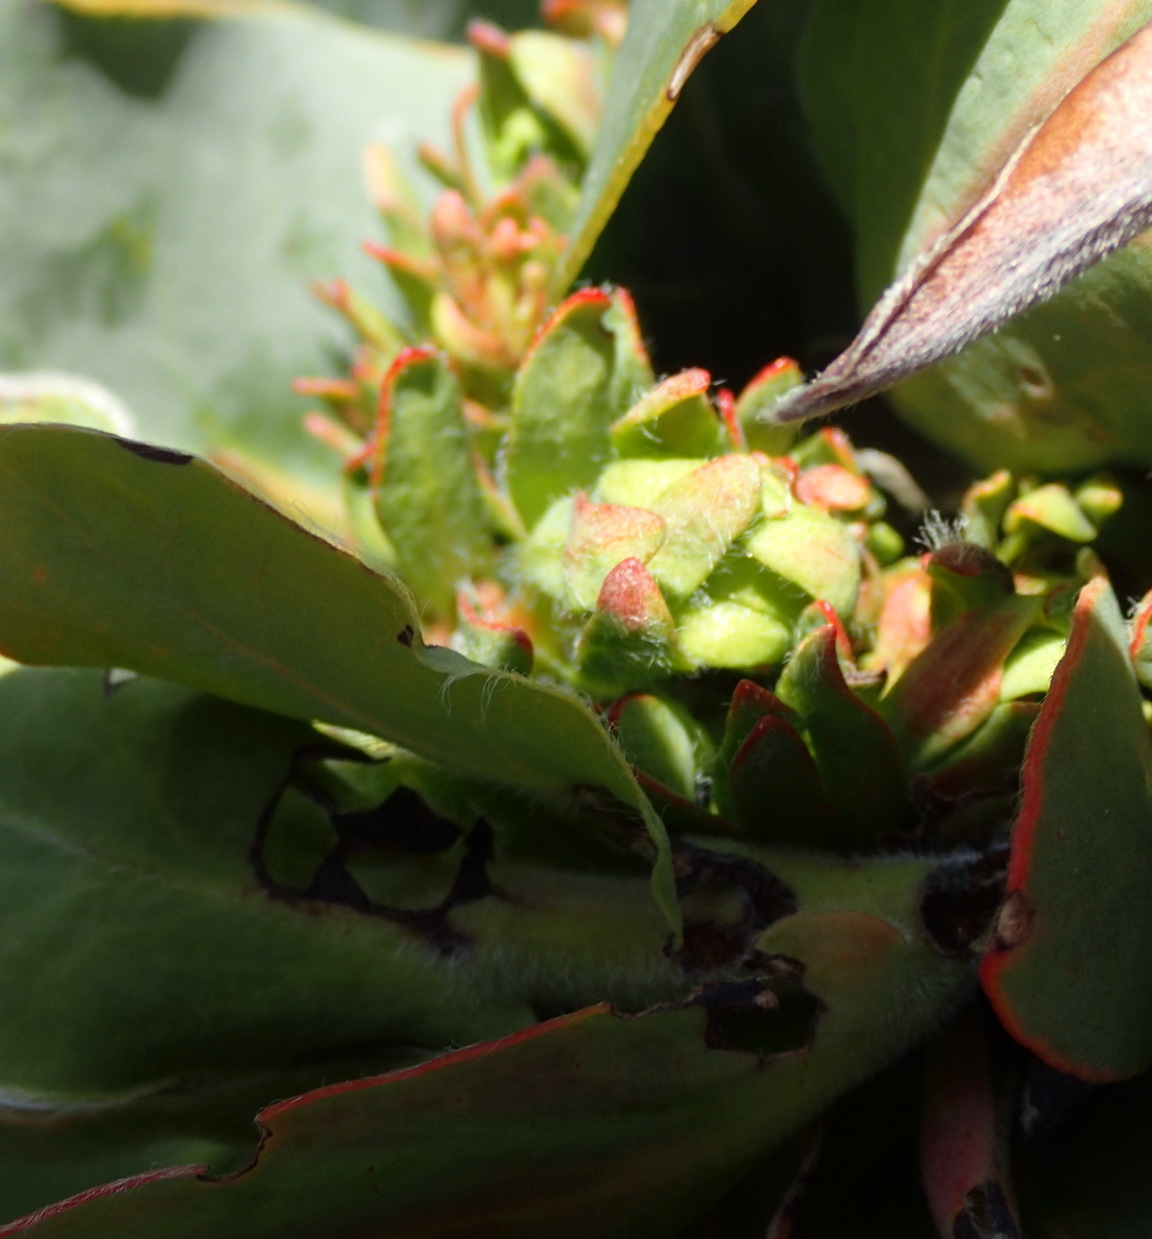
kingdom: Bacteria
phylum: Firmicutes
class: Bacilli
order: Acholeplasmatales
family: Acholeplasmataceae
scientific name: Acholeplasmataceae
